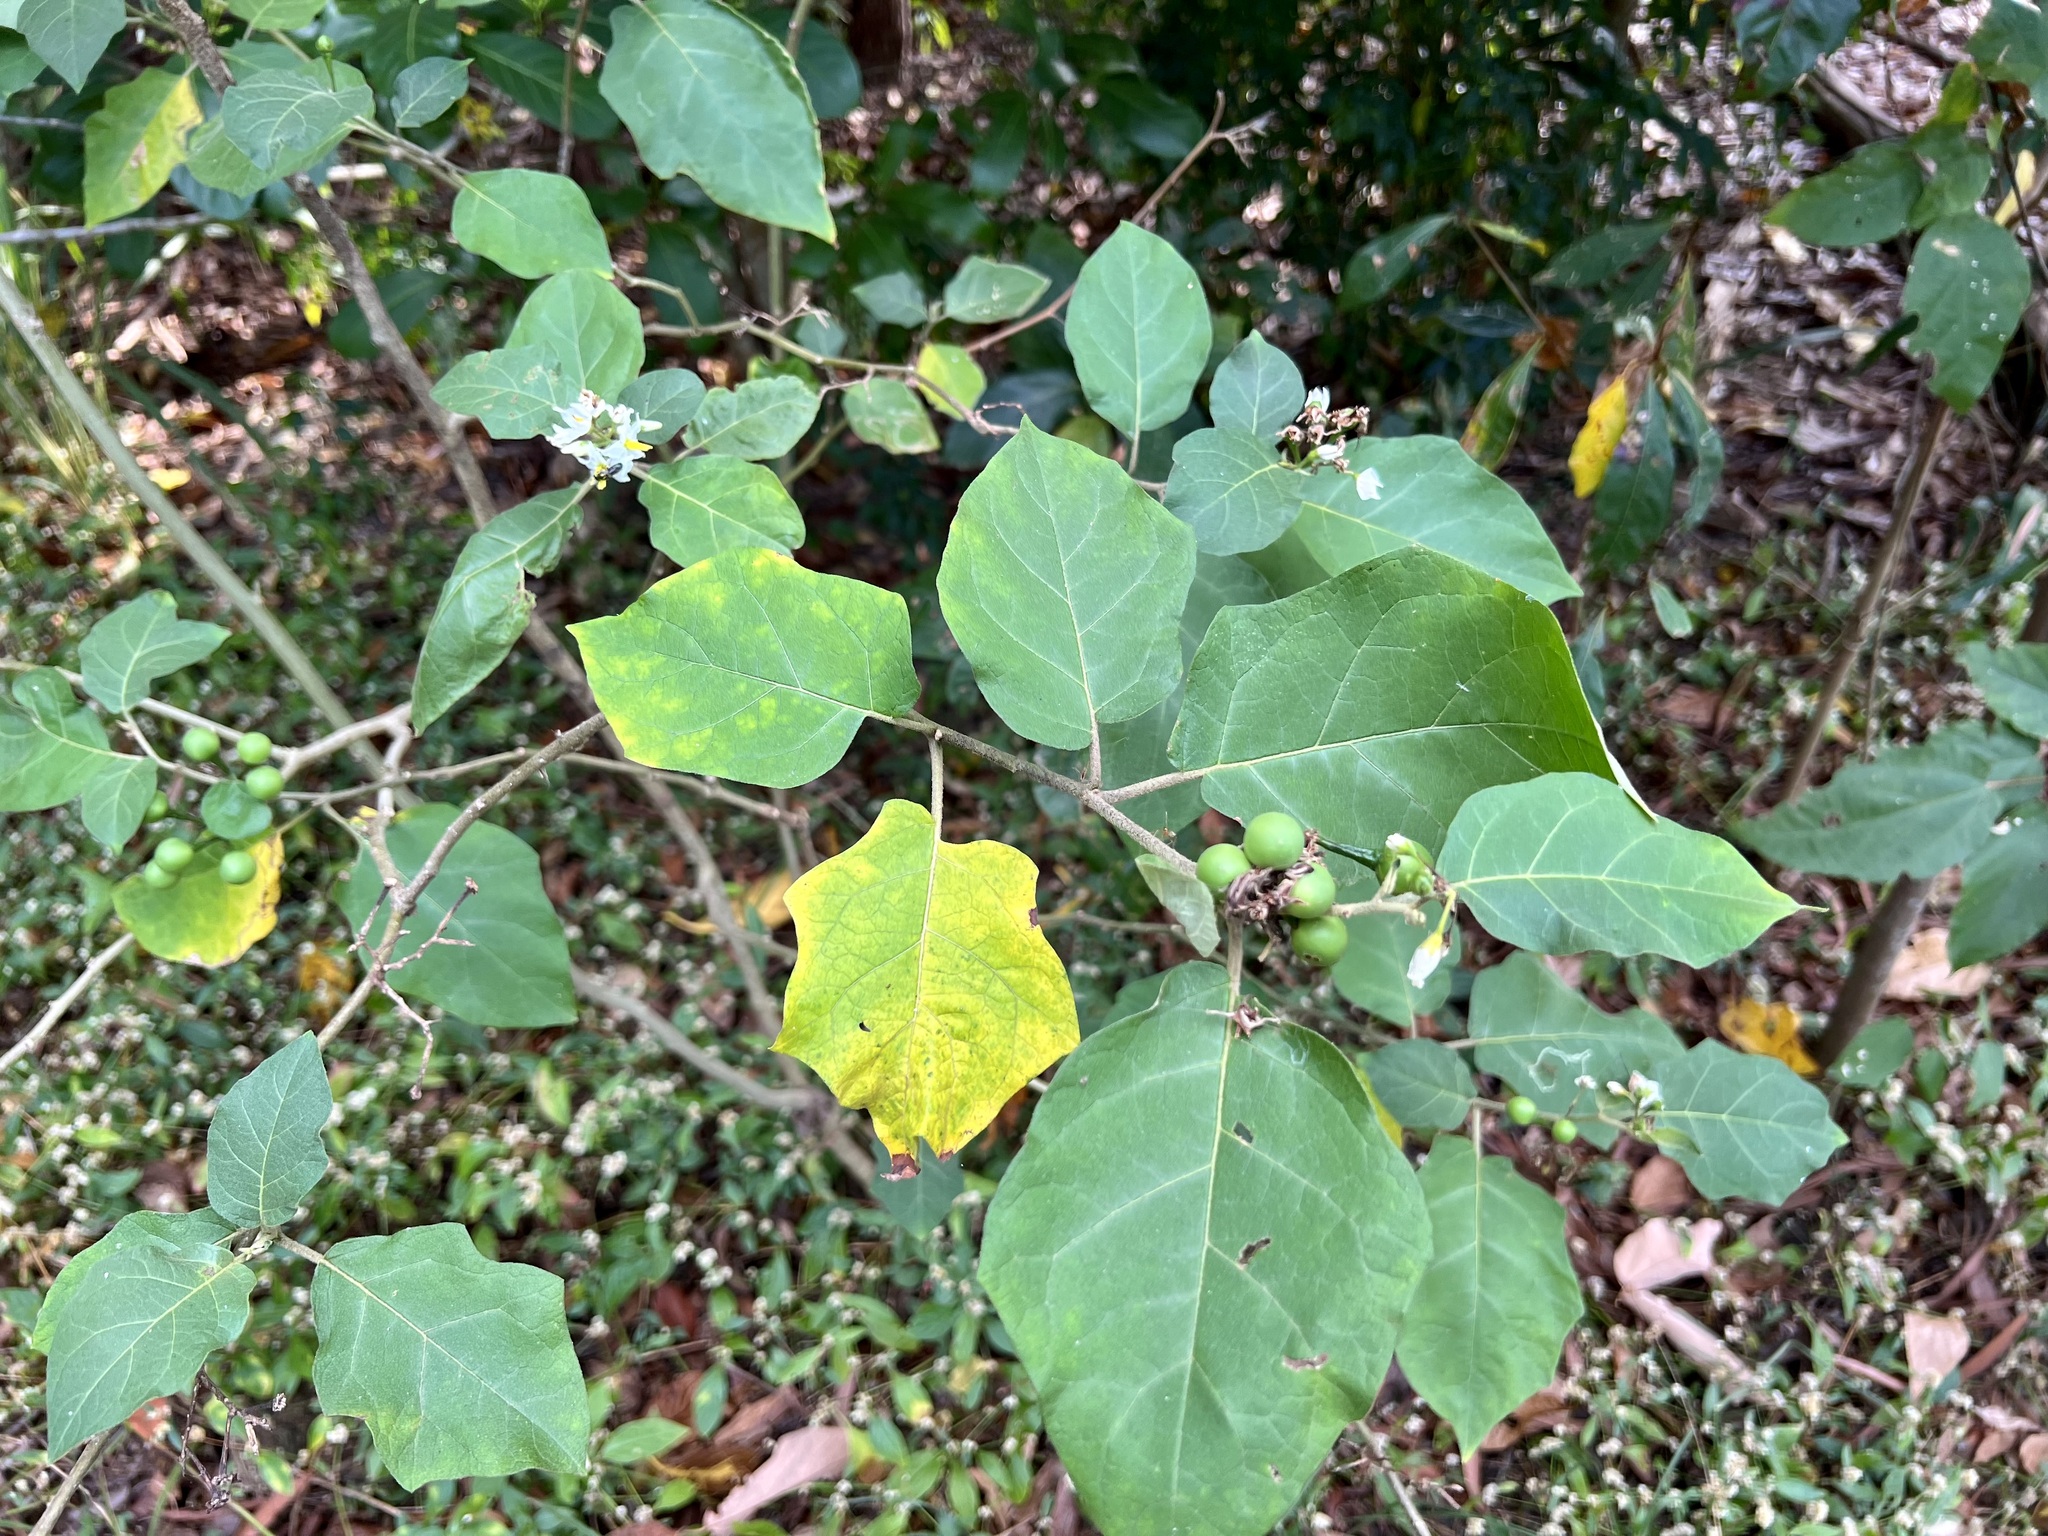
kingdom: Plantae
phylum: Tracheophyta
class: Magnoliopsida
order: Solanales
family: Solanaceae
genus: Solanum
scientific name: Solanum torvum
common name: Turkey berry
